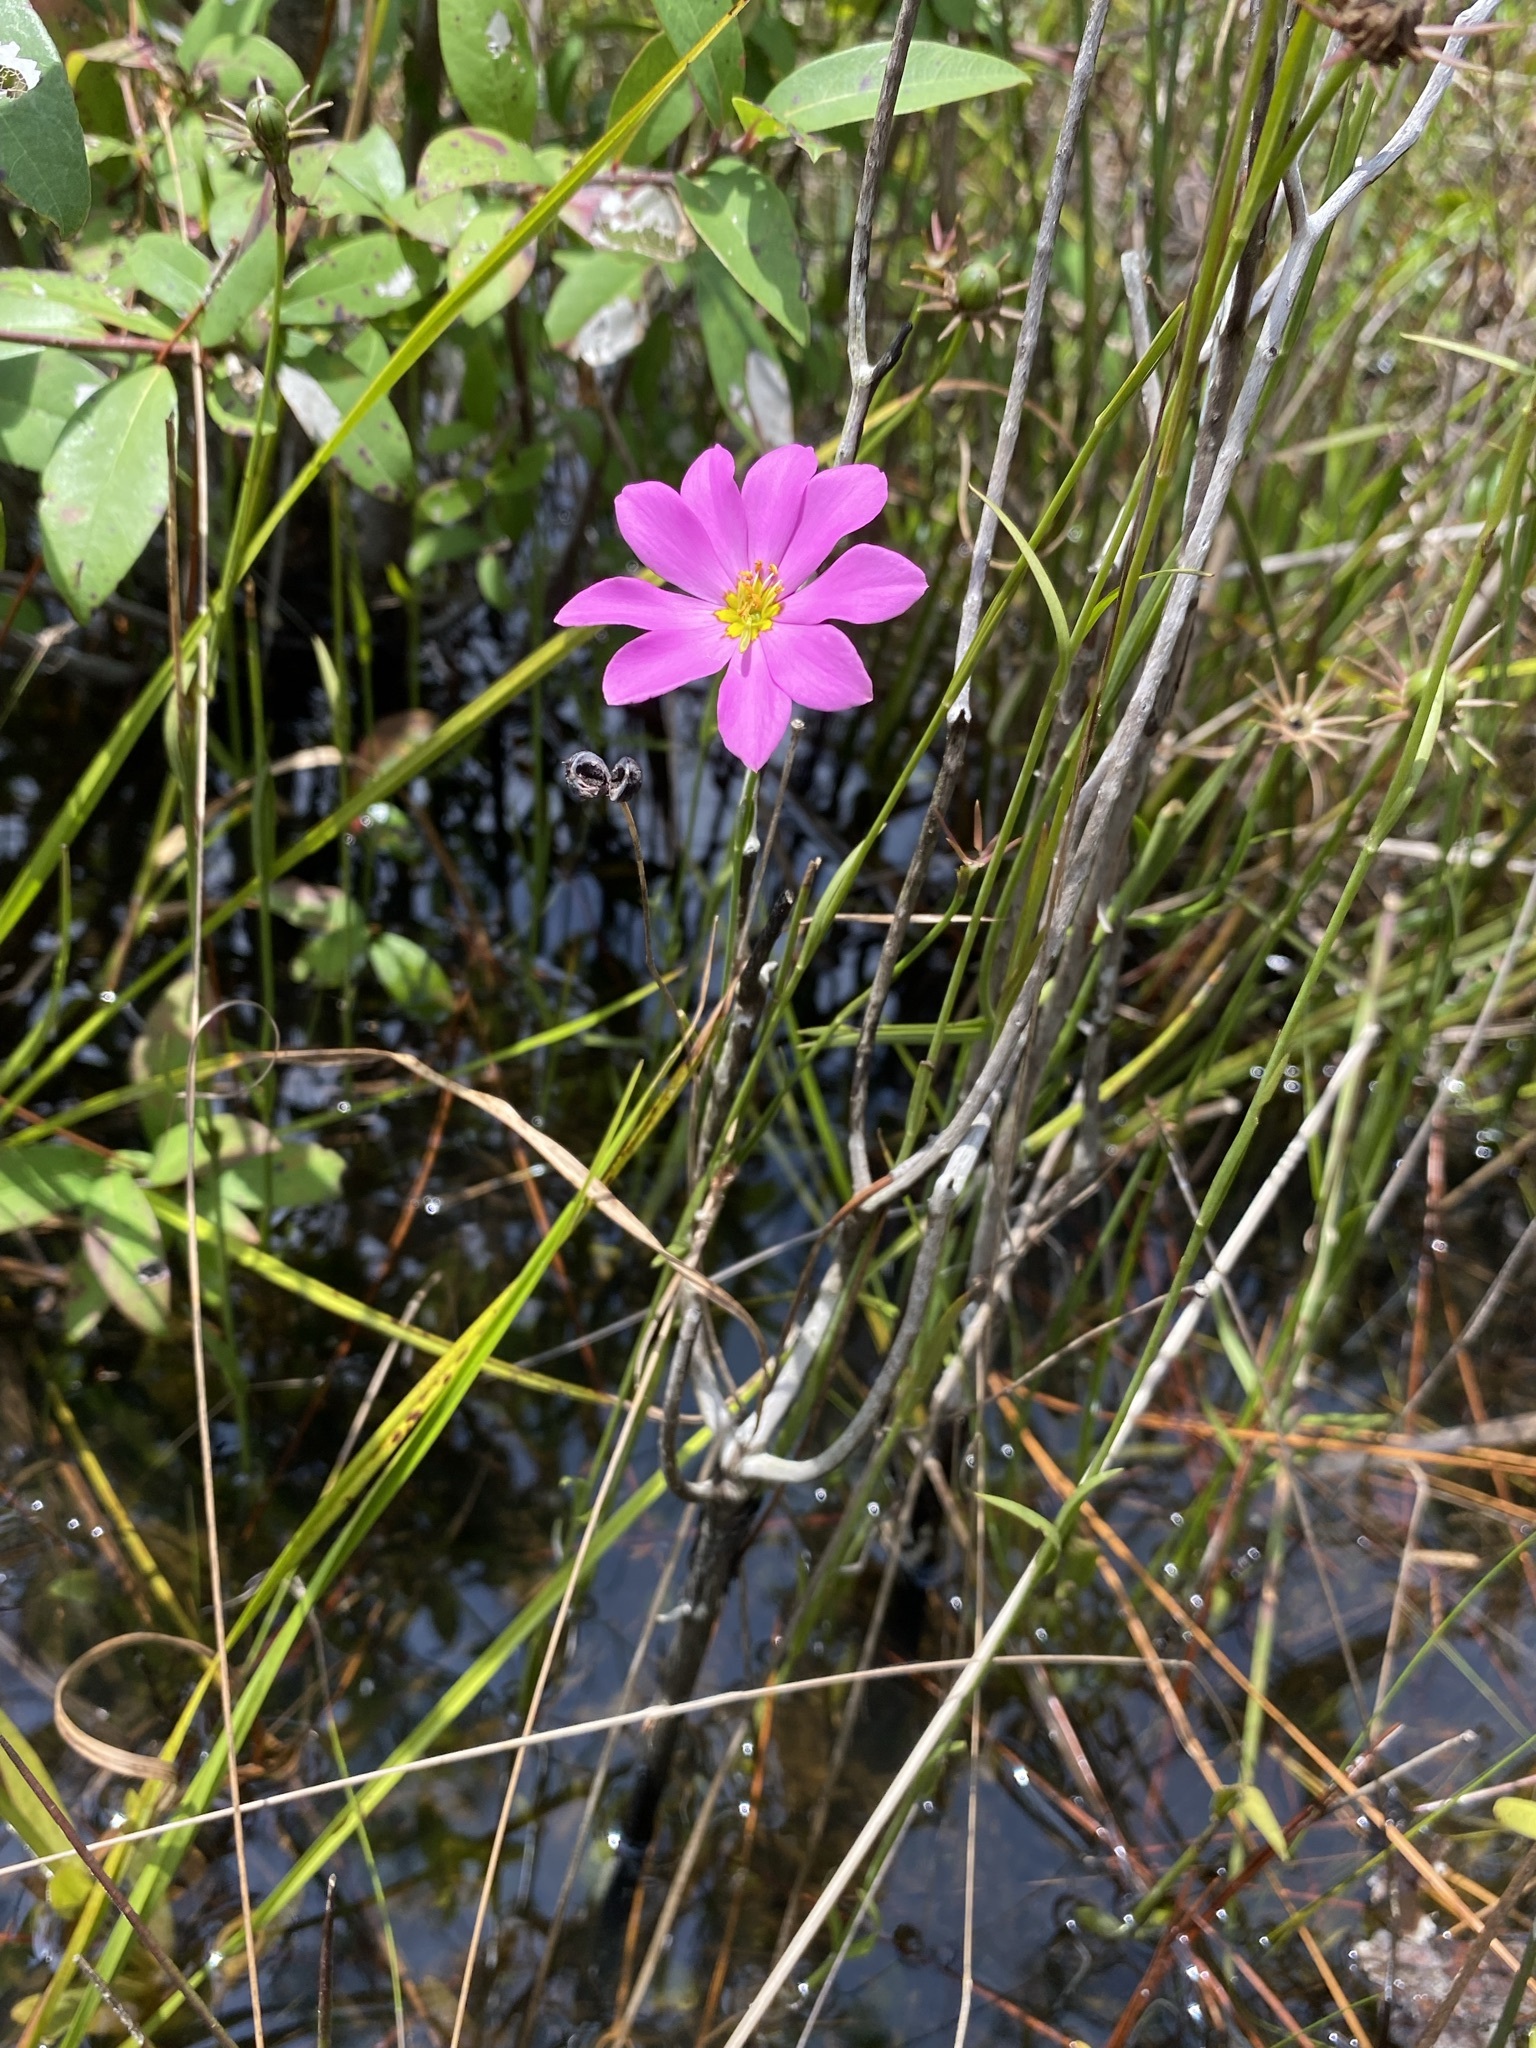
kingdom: Plantae
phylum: Tracheophyta
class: Magnoliopsida
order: Gentianales
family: Gentianaceae
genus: Sabatia
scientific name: Sabatia decandra
